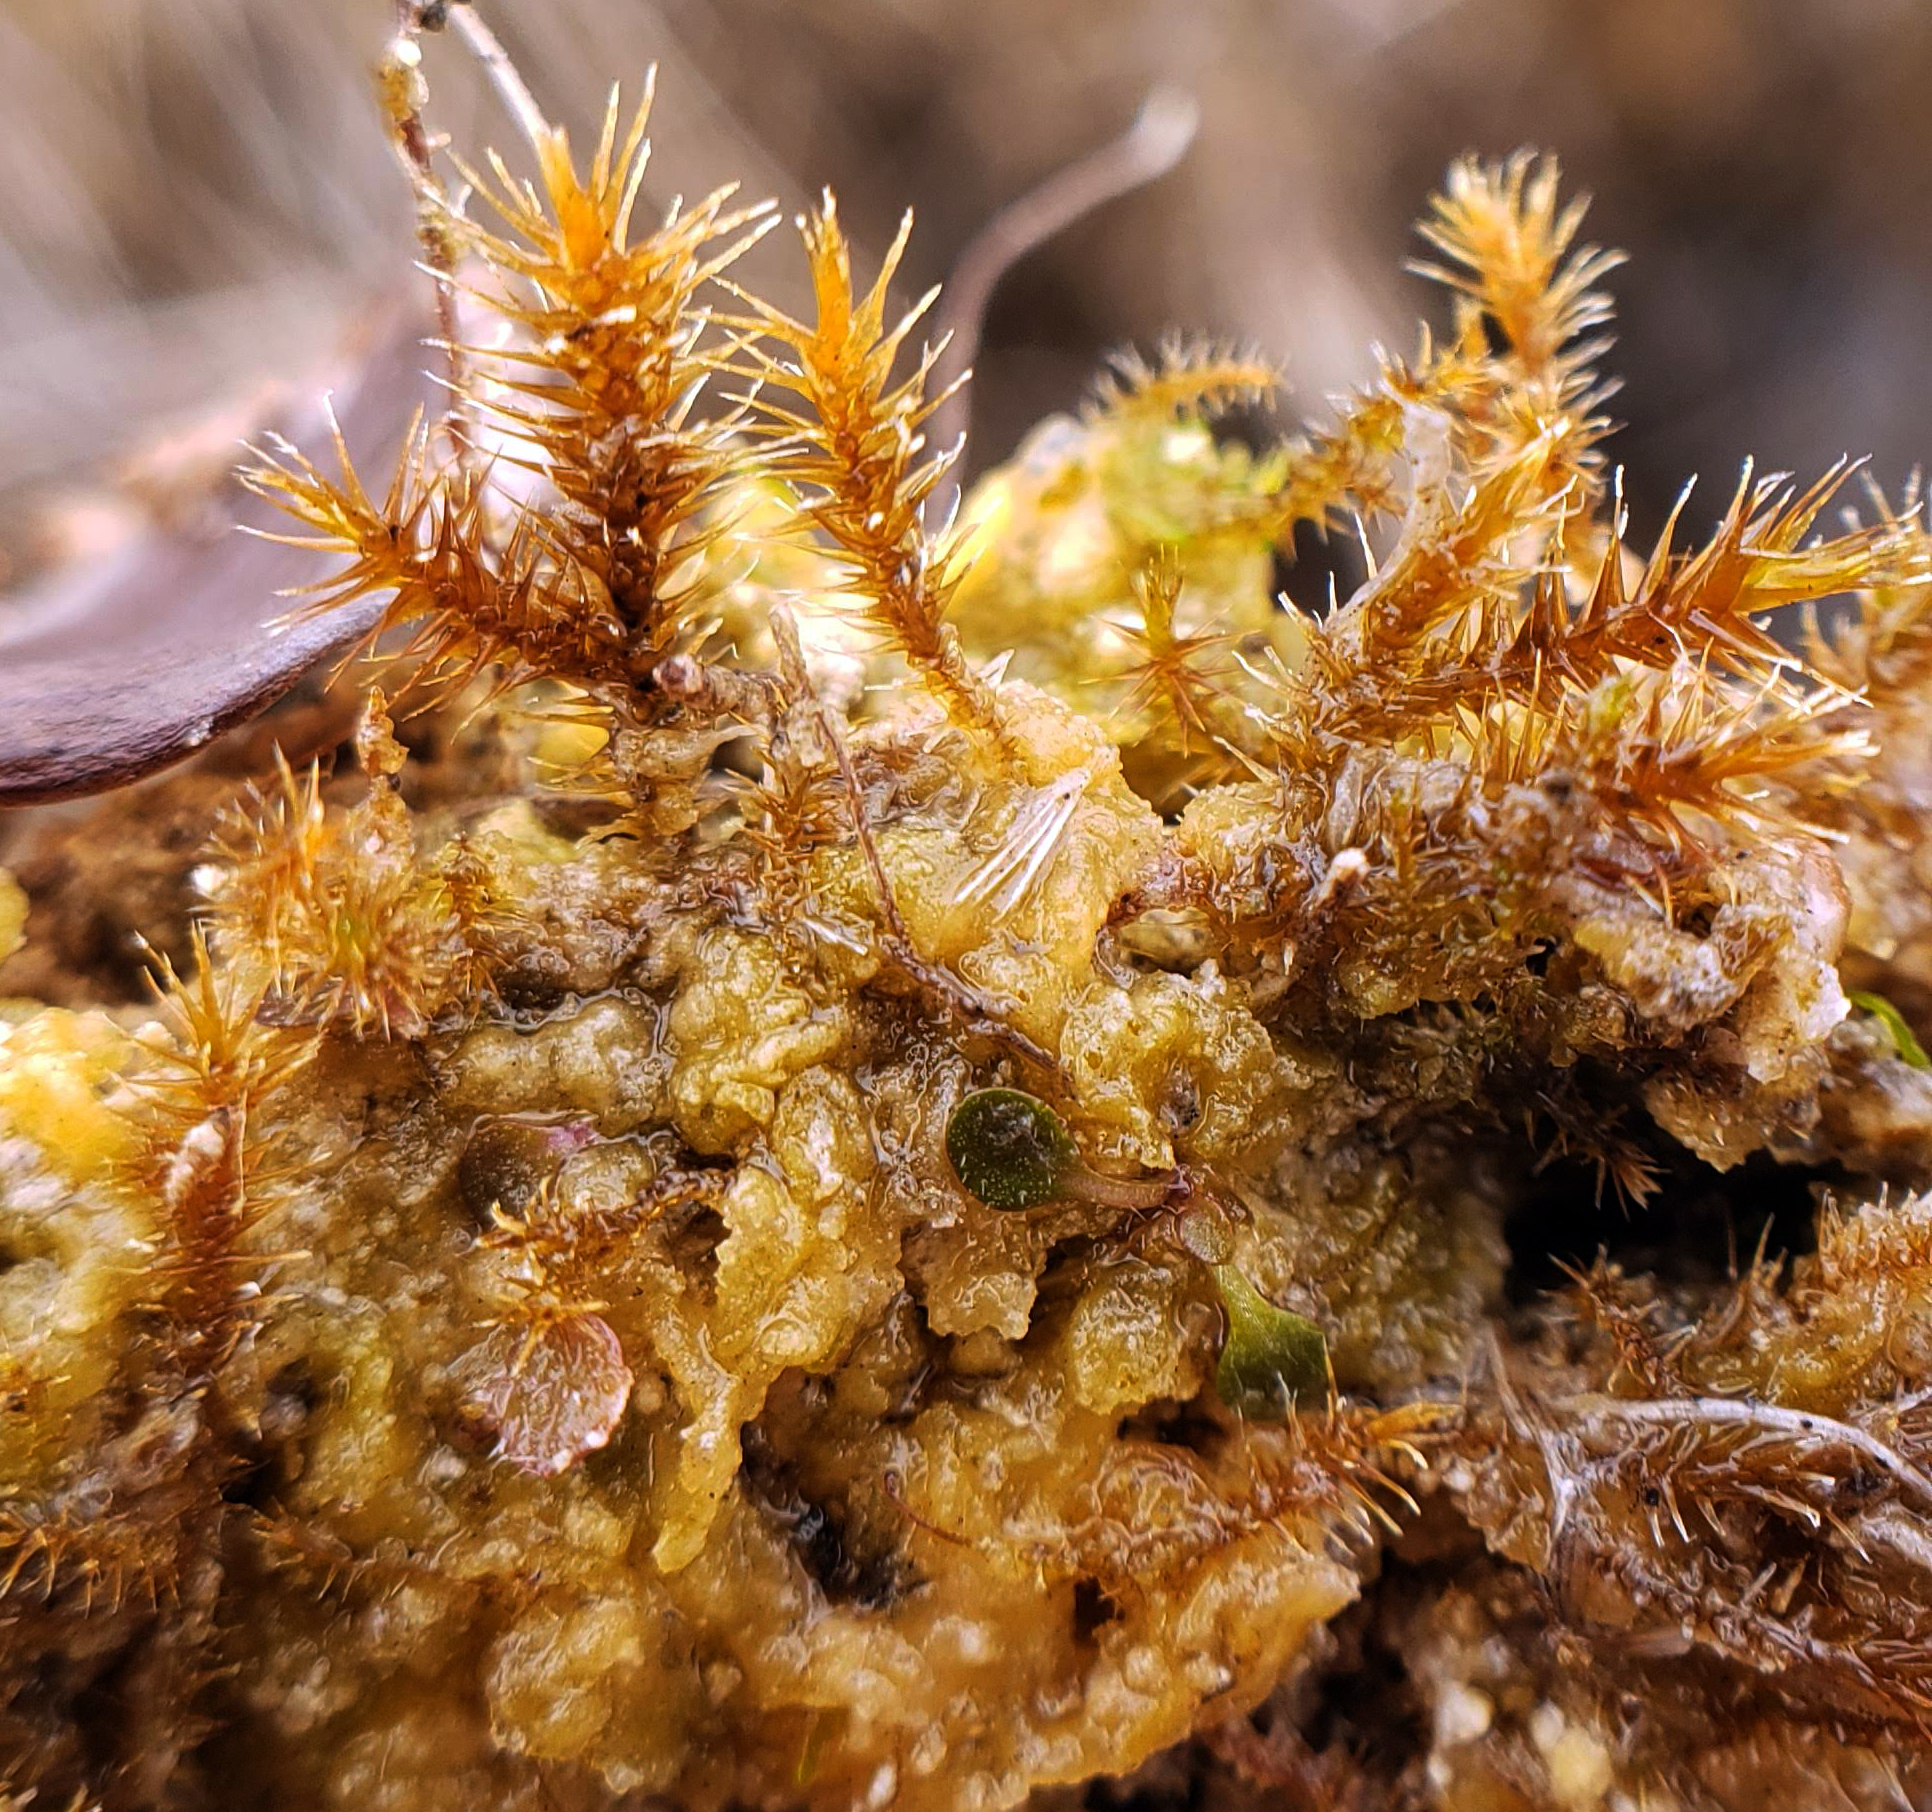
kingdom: Plantae
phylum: Bryophyta
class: Bryopsida
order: Hypnales
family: Amblystegiaceae
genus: Campylium
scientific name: Campylium stellatum
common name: Yellow starry fen moss
